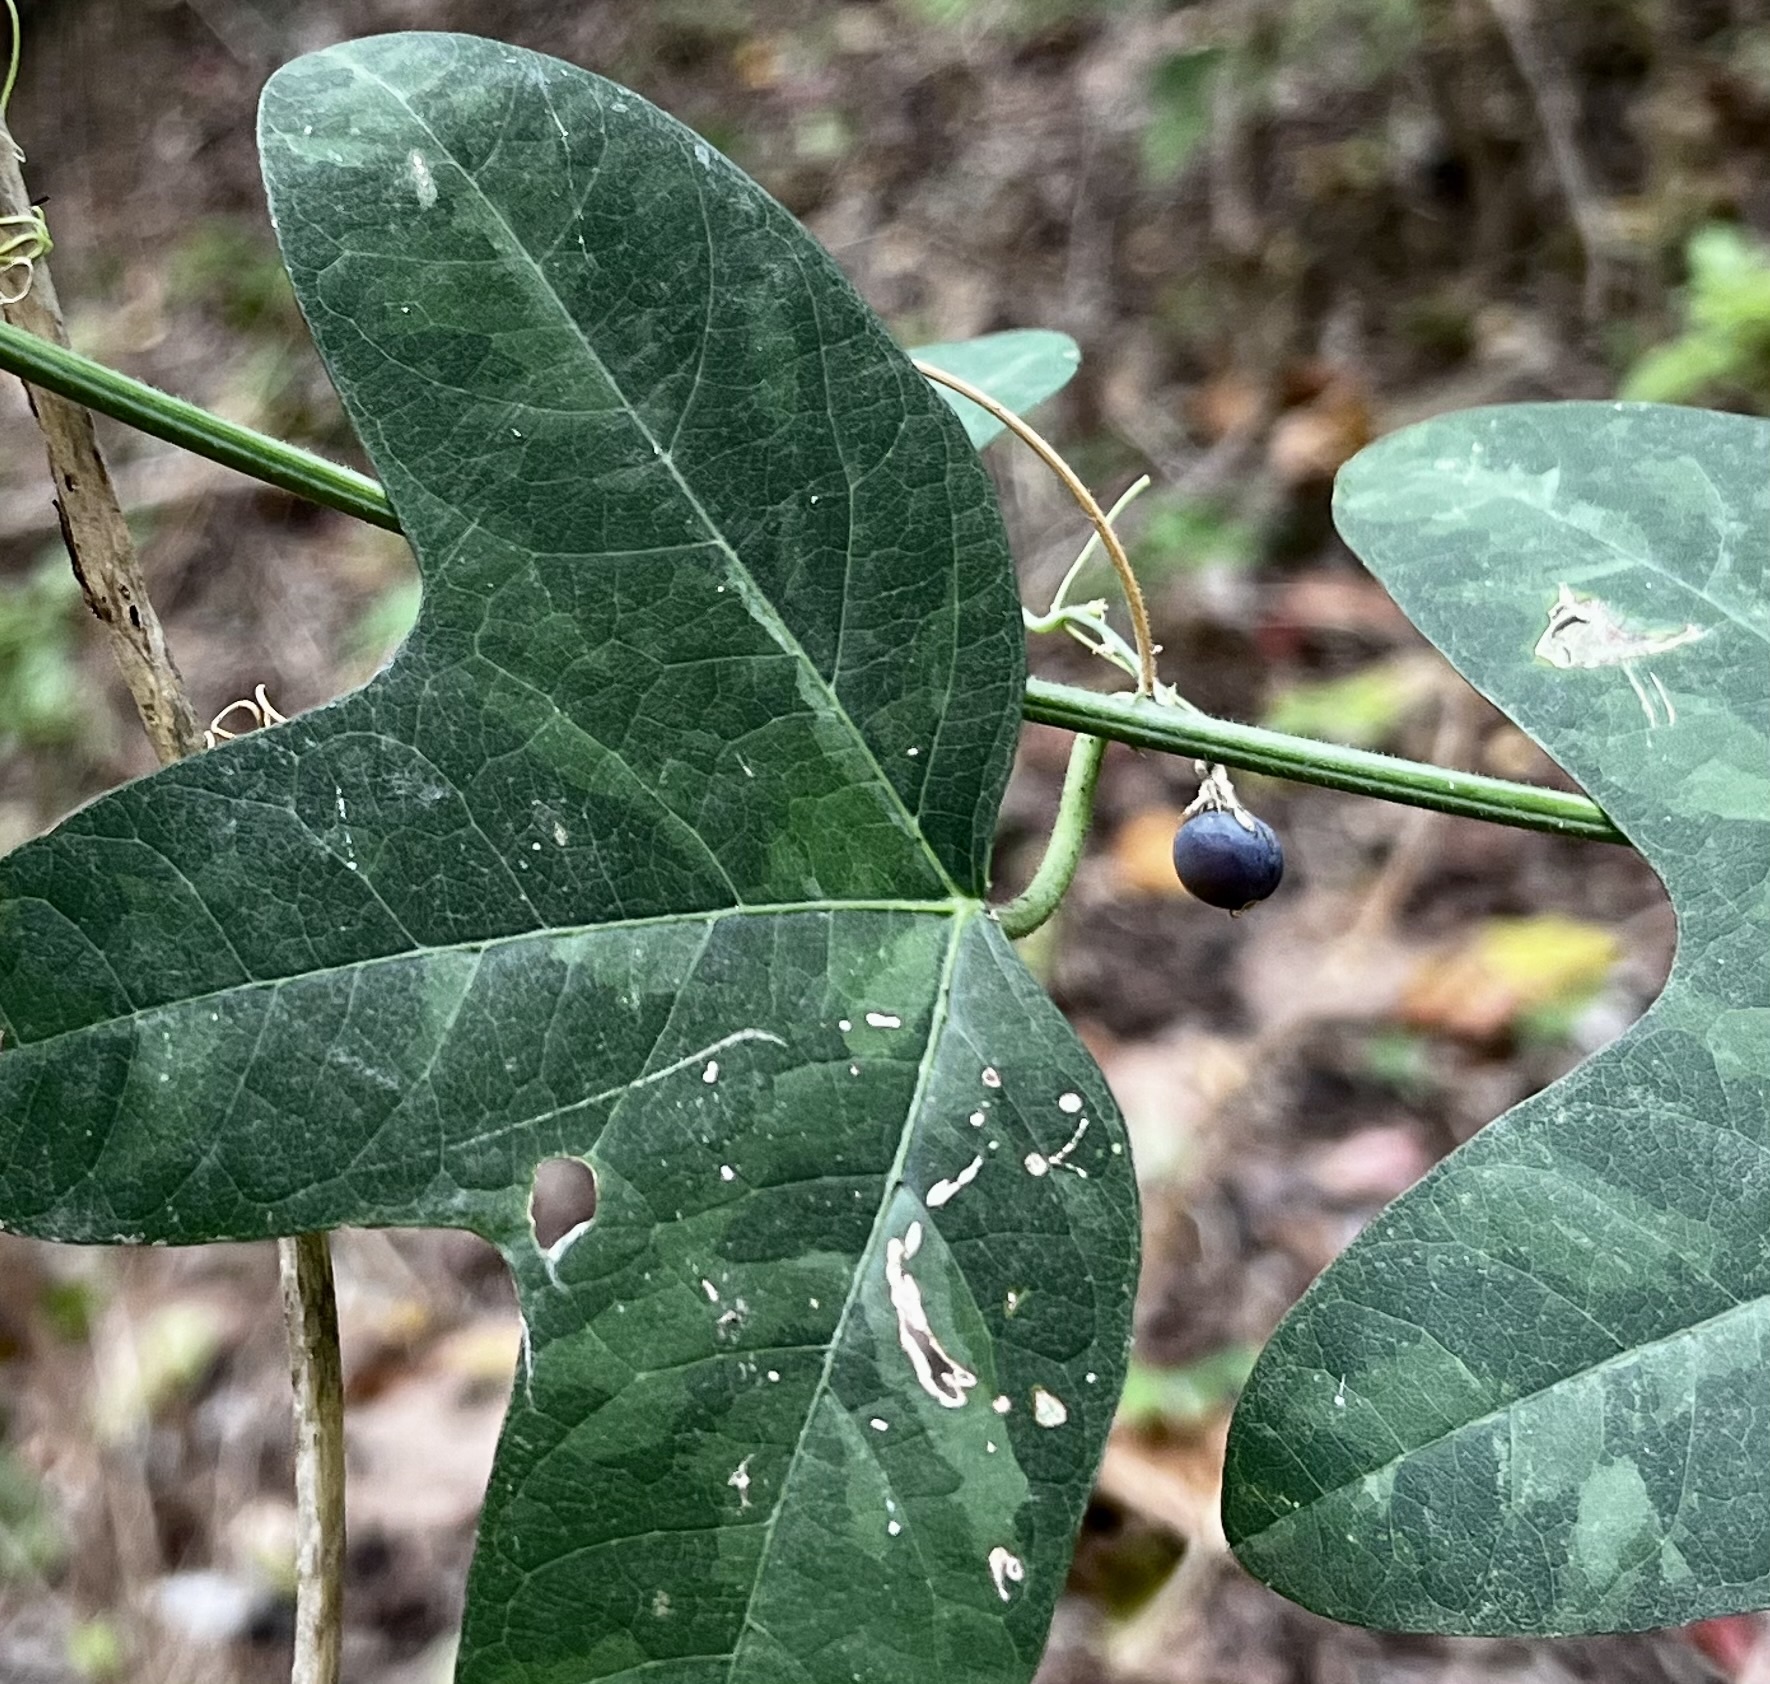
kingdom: Plantae
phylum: Tracheophyta
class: Magnoliopsida
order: Malpighiales
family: Passifloraceae
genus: Passiflora
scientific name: Passiflora lutea
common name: Yellow passionflower
